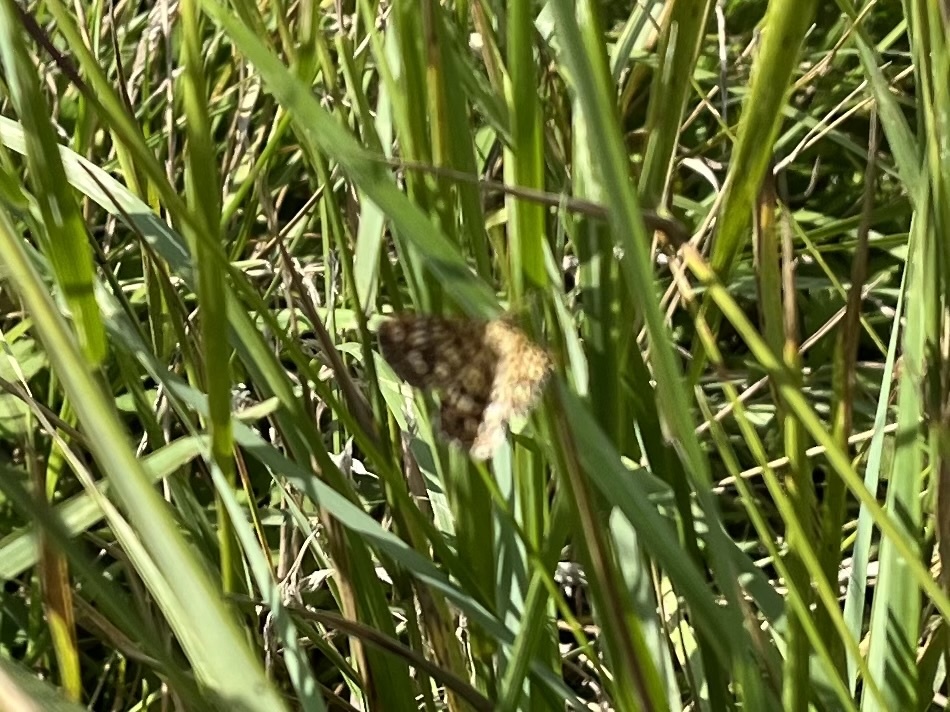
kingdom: Animalia
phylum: Arthropoda
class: Insecta
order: Lepidoptera
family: Geometridae
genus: Chiasmia
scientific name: Chiasmia clathrata
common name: Latticed heath
